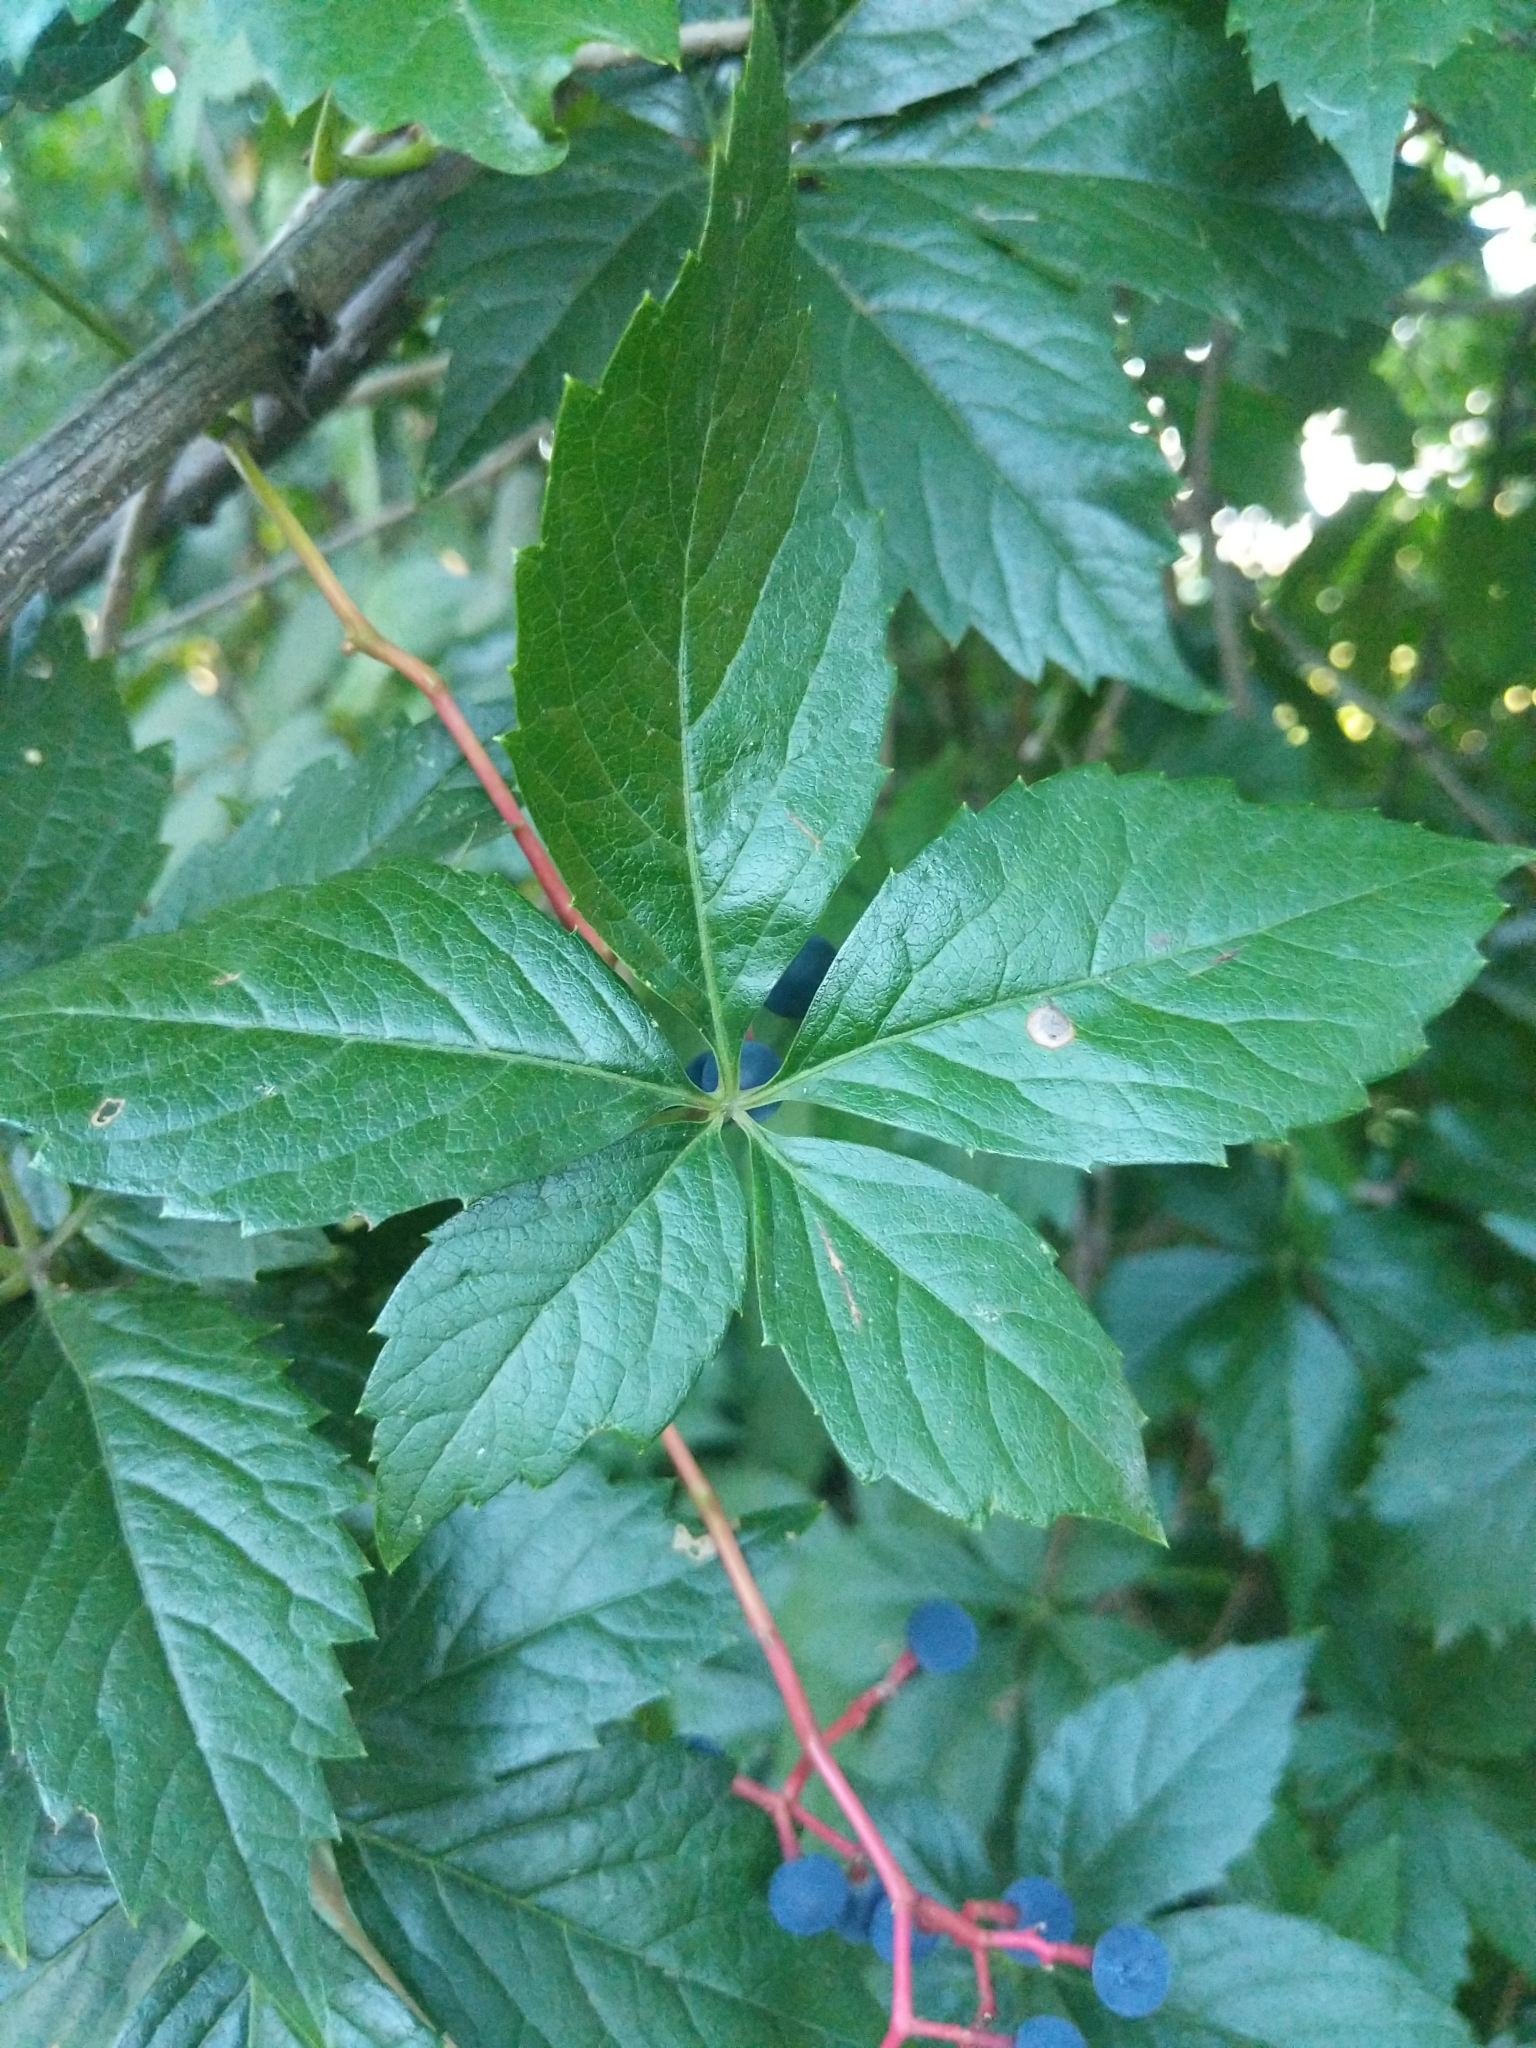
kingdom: Plantae
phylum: Tracheophyta
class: Magnoliopsida
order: Vitales
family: Vitaceae
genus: Parthenocissus
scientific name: Parthenocissus quinquefolia
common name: Virginia-creeper
